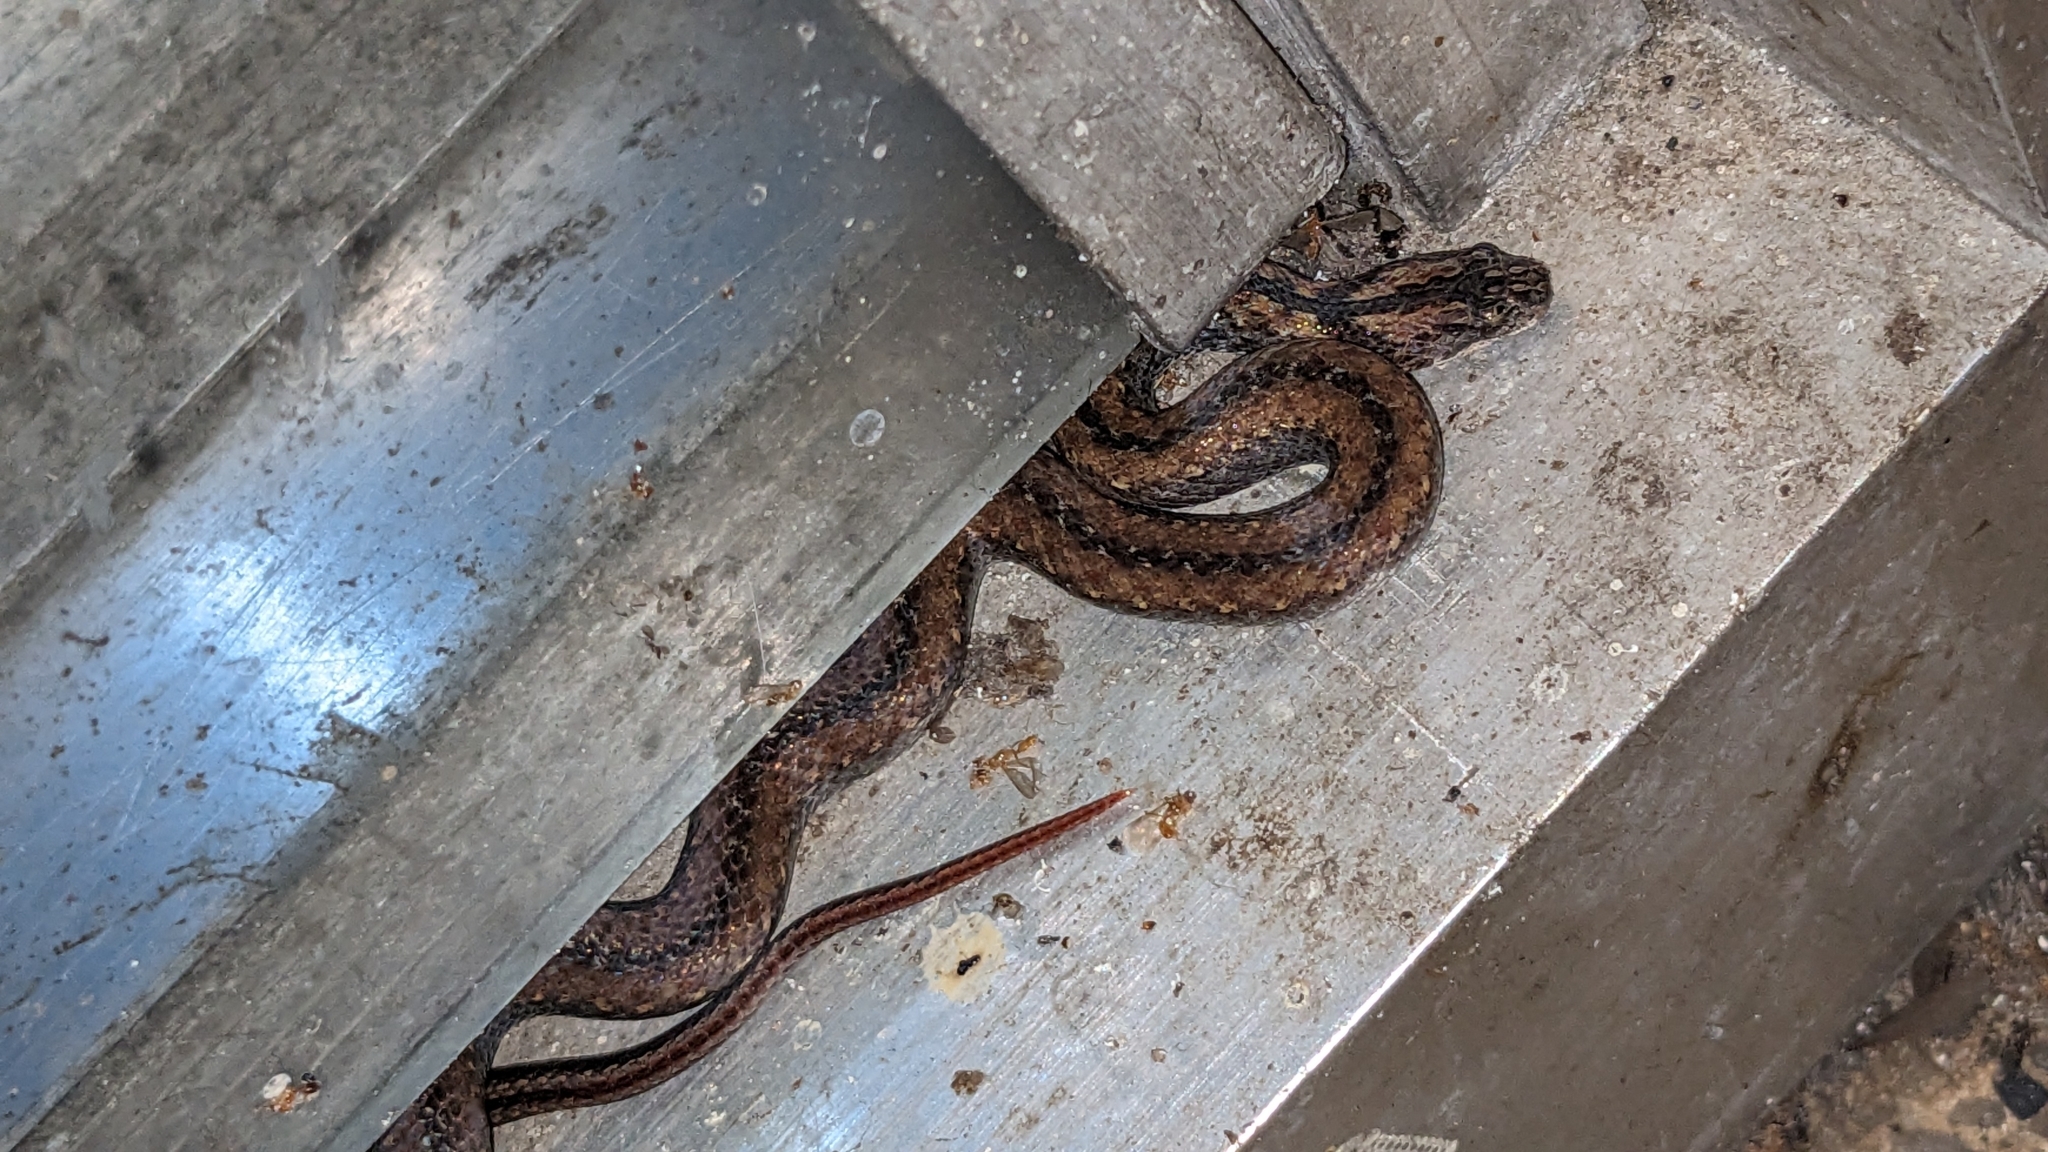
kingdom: Animalia
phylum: Chordata
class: Squamata
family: Cyclocoridae
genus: Cyclocorus
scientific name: Cyclocorus lineatus
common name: Northern triangle-spotted snake
